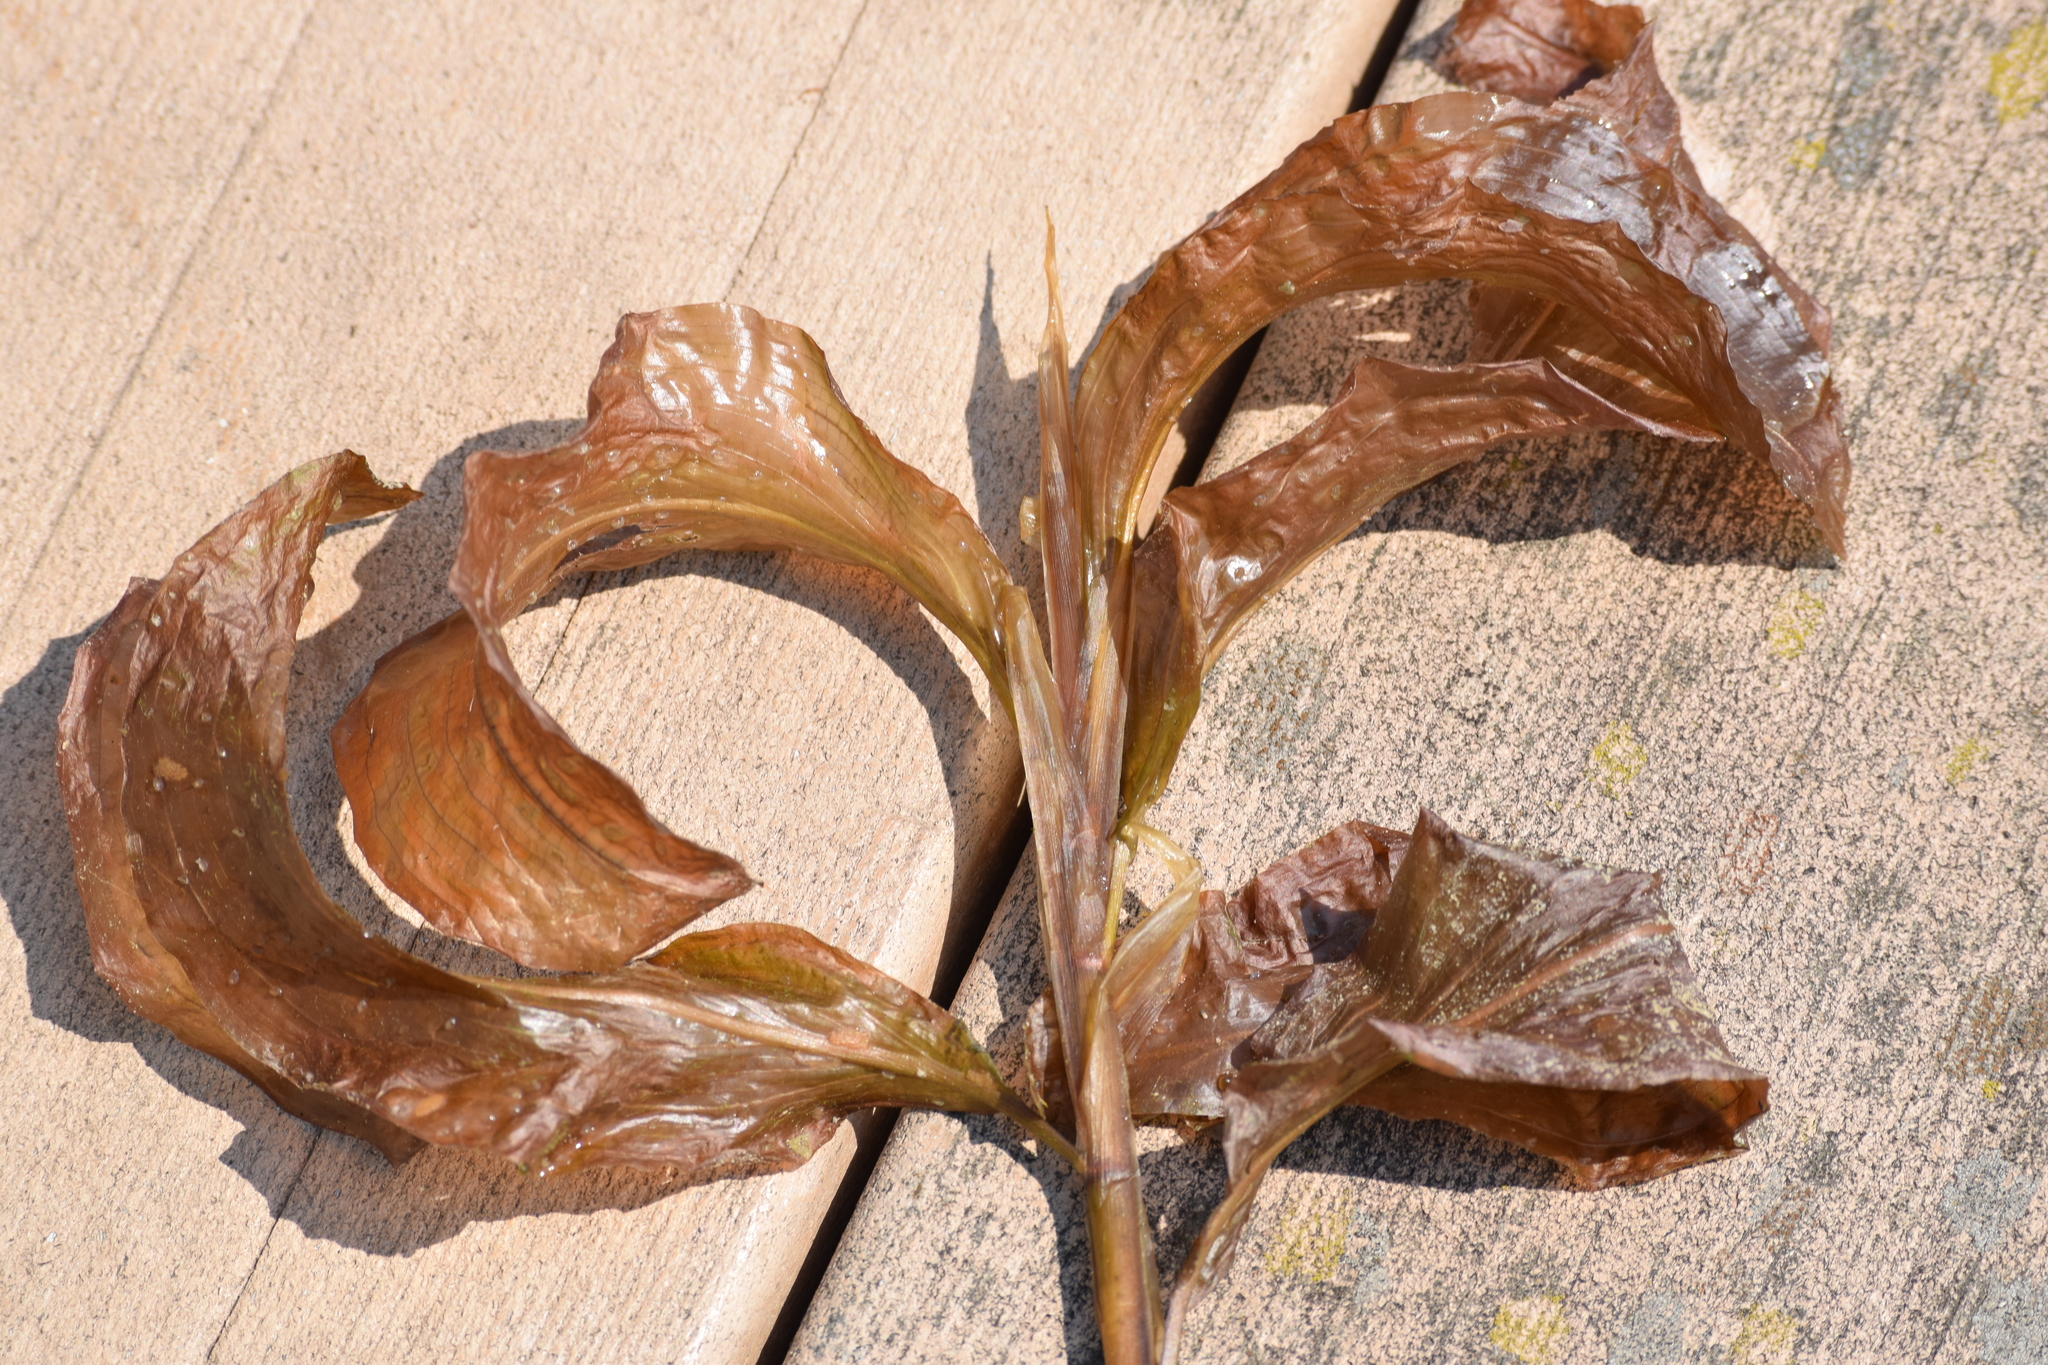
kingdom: Plantae
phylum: Tracheophyta
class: Liliopsida
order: Alismatales
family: Potamogetonaceae
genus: Potamogeton
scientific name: Potamogeton amplifolius
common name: Broad-leaved pondweed
